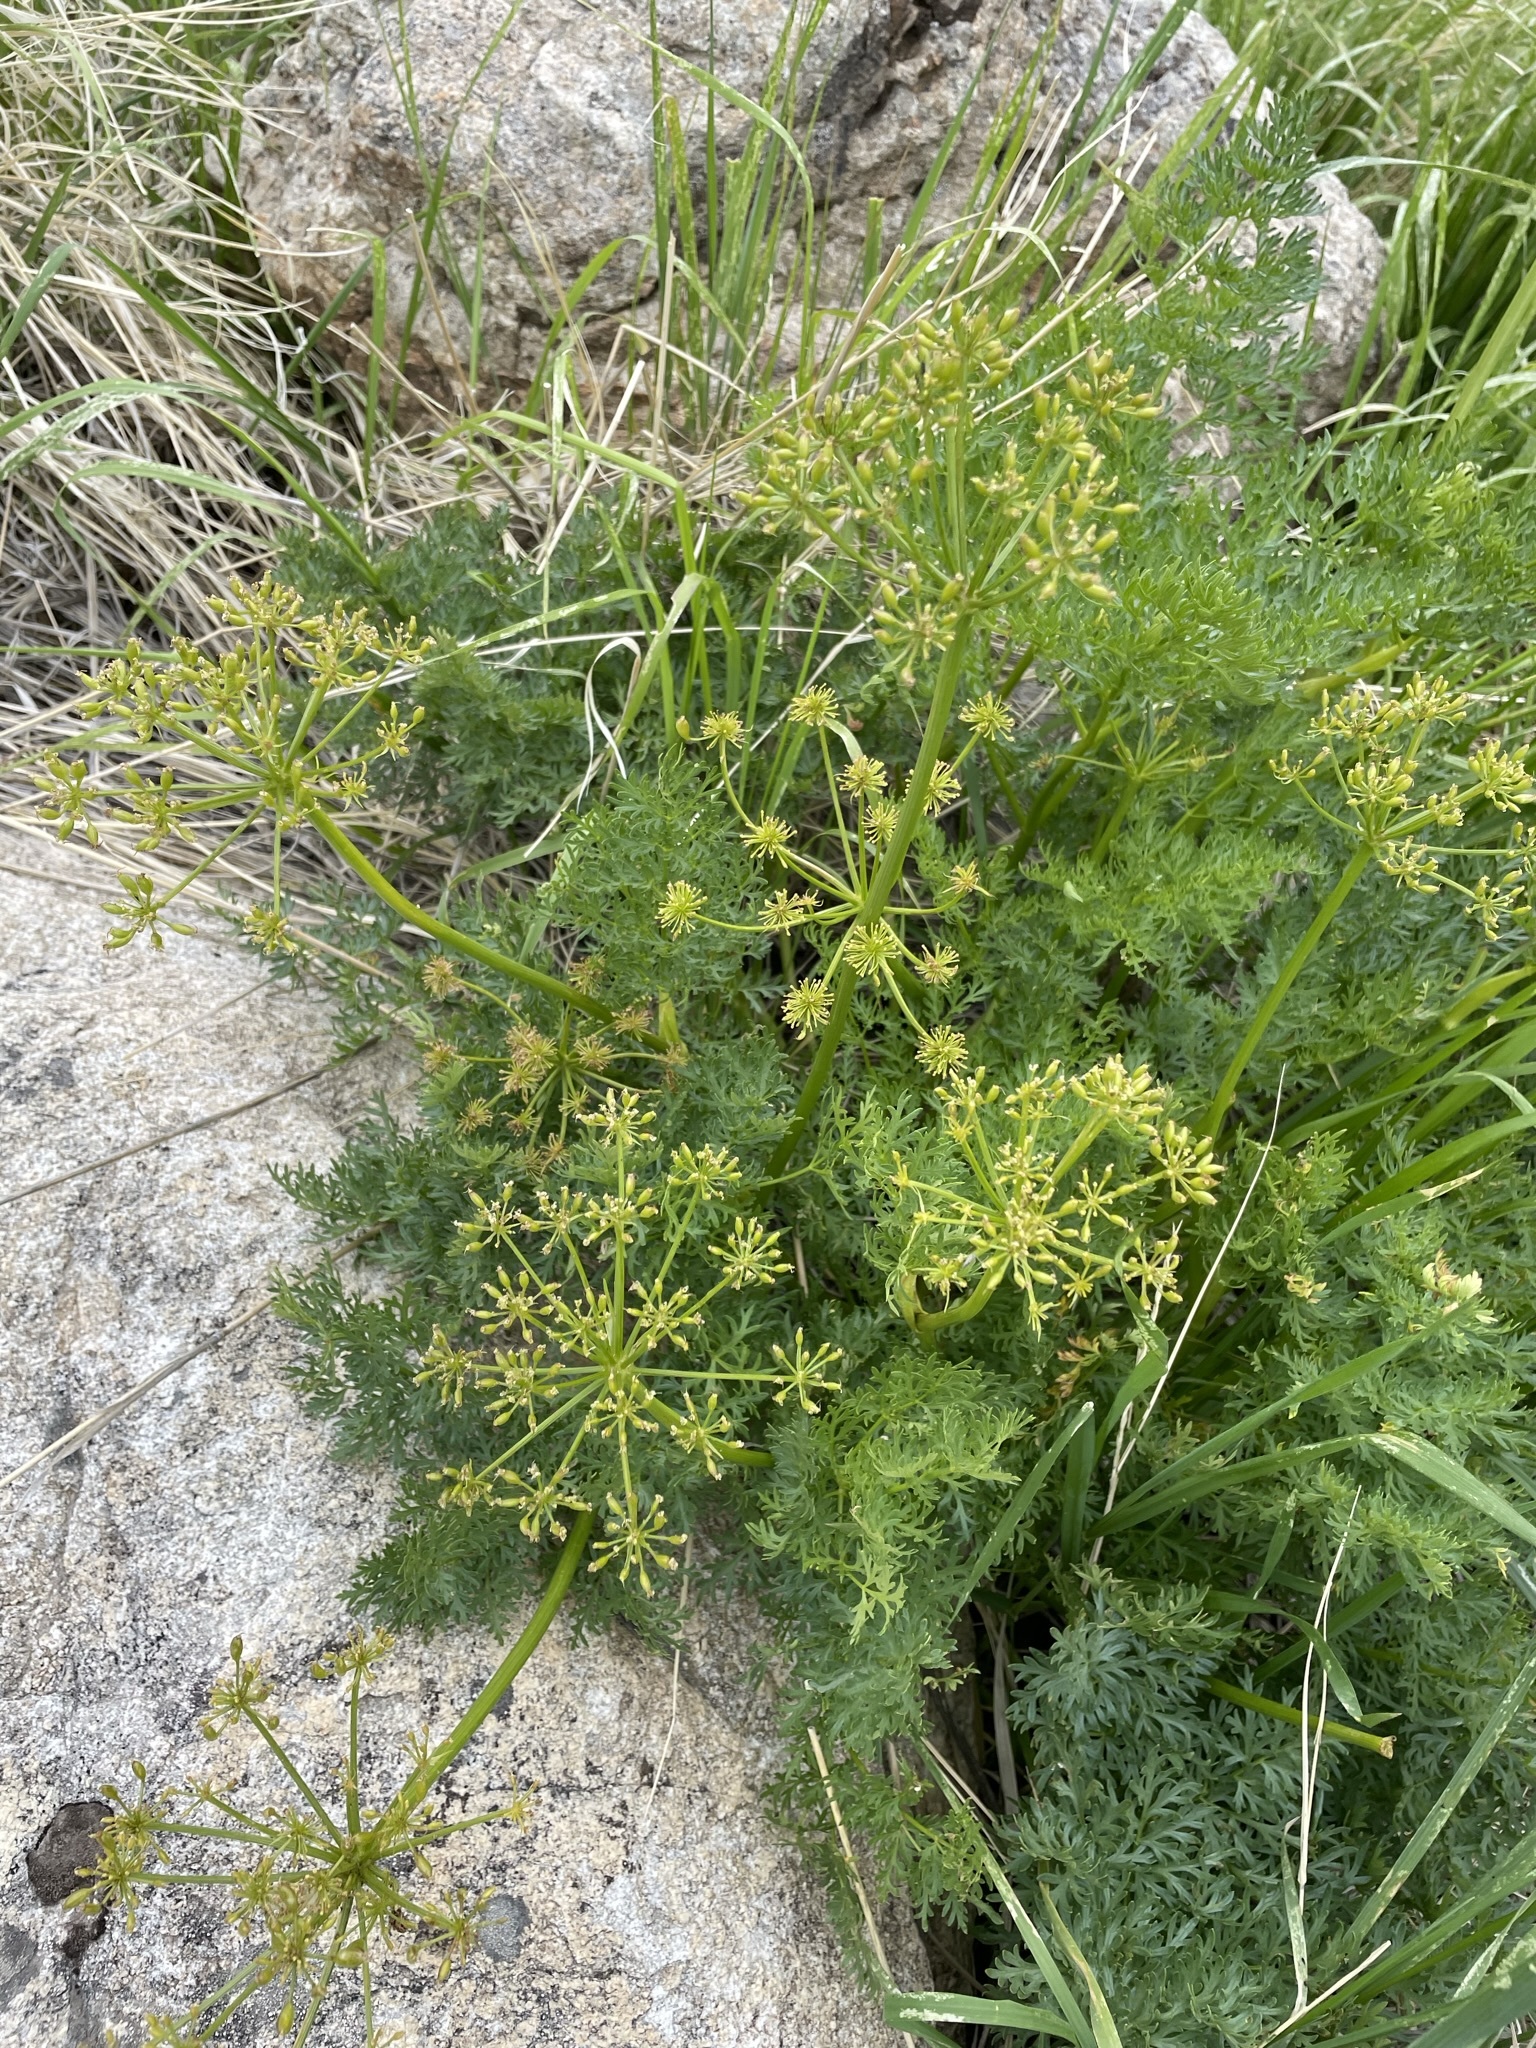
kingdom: Plantae
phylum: Tracheophyta
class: Magnoliopsida
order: Apiales
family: Apiaceae
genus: Lomatium
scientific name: Lomatium multifidum
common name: Carrot-leaved biscuitroot
